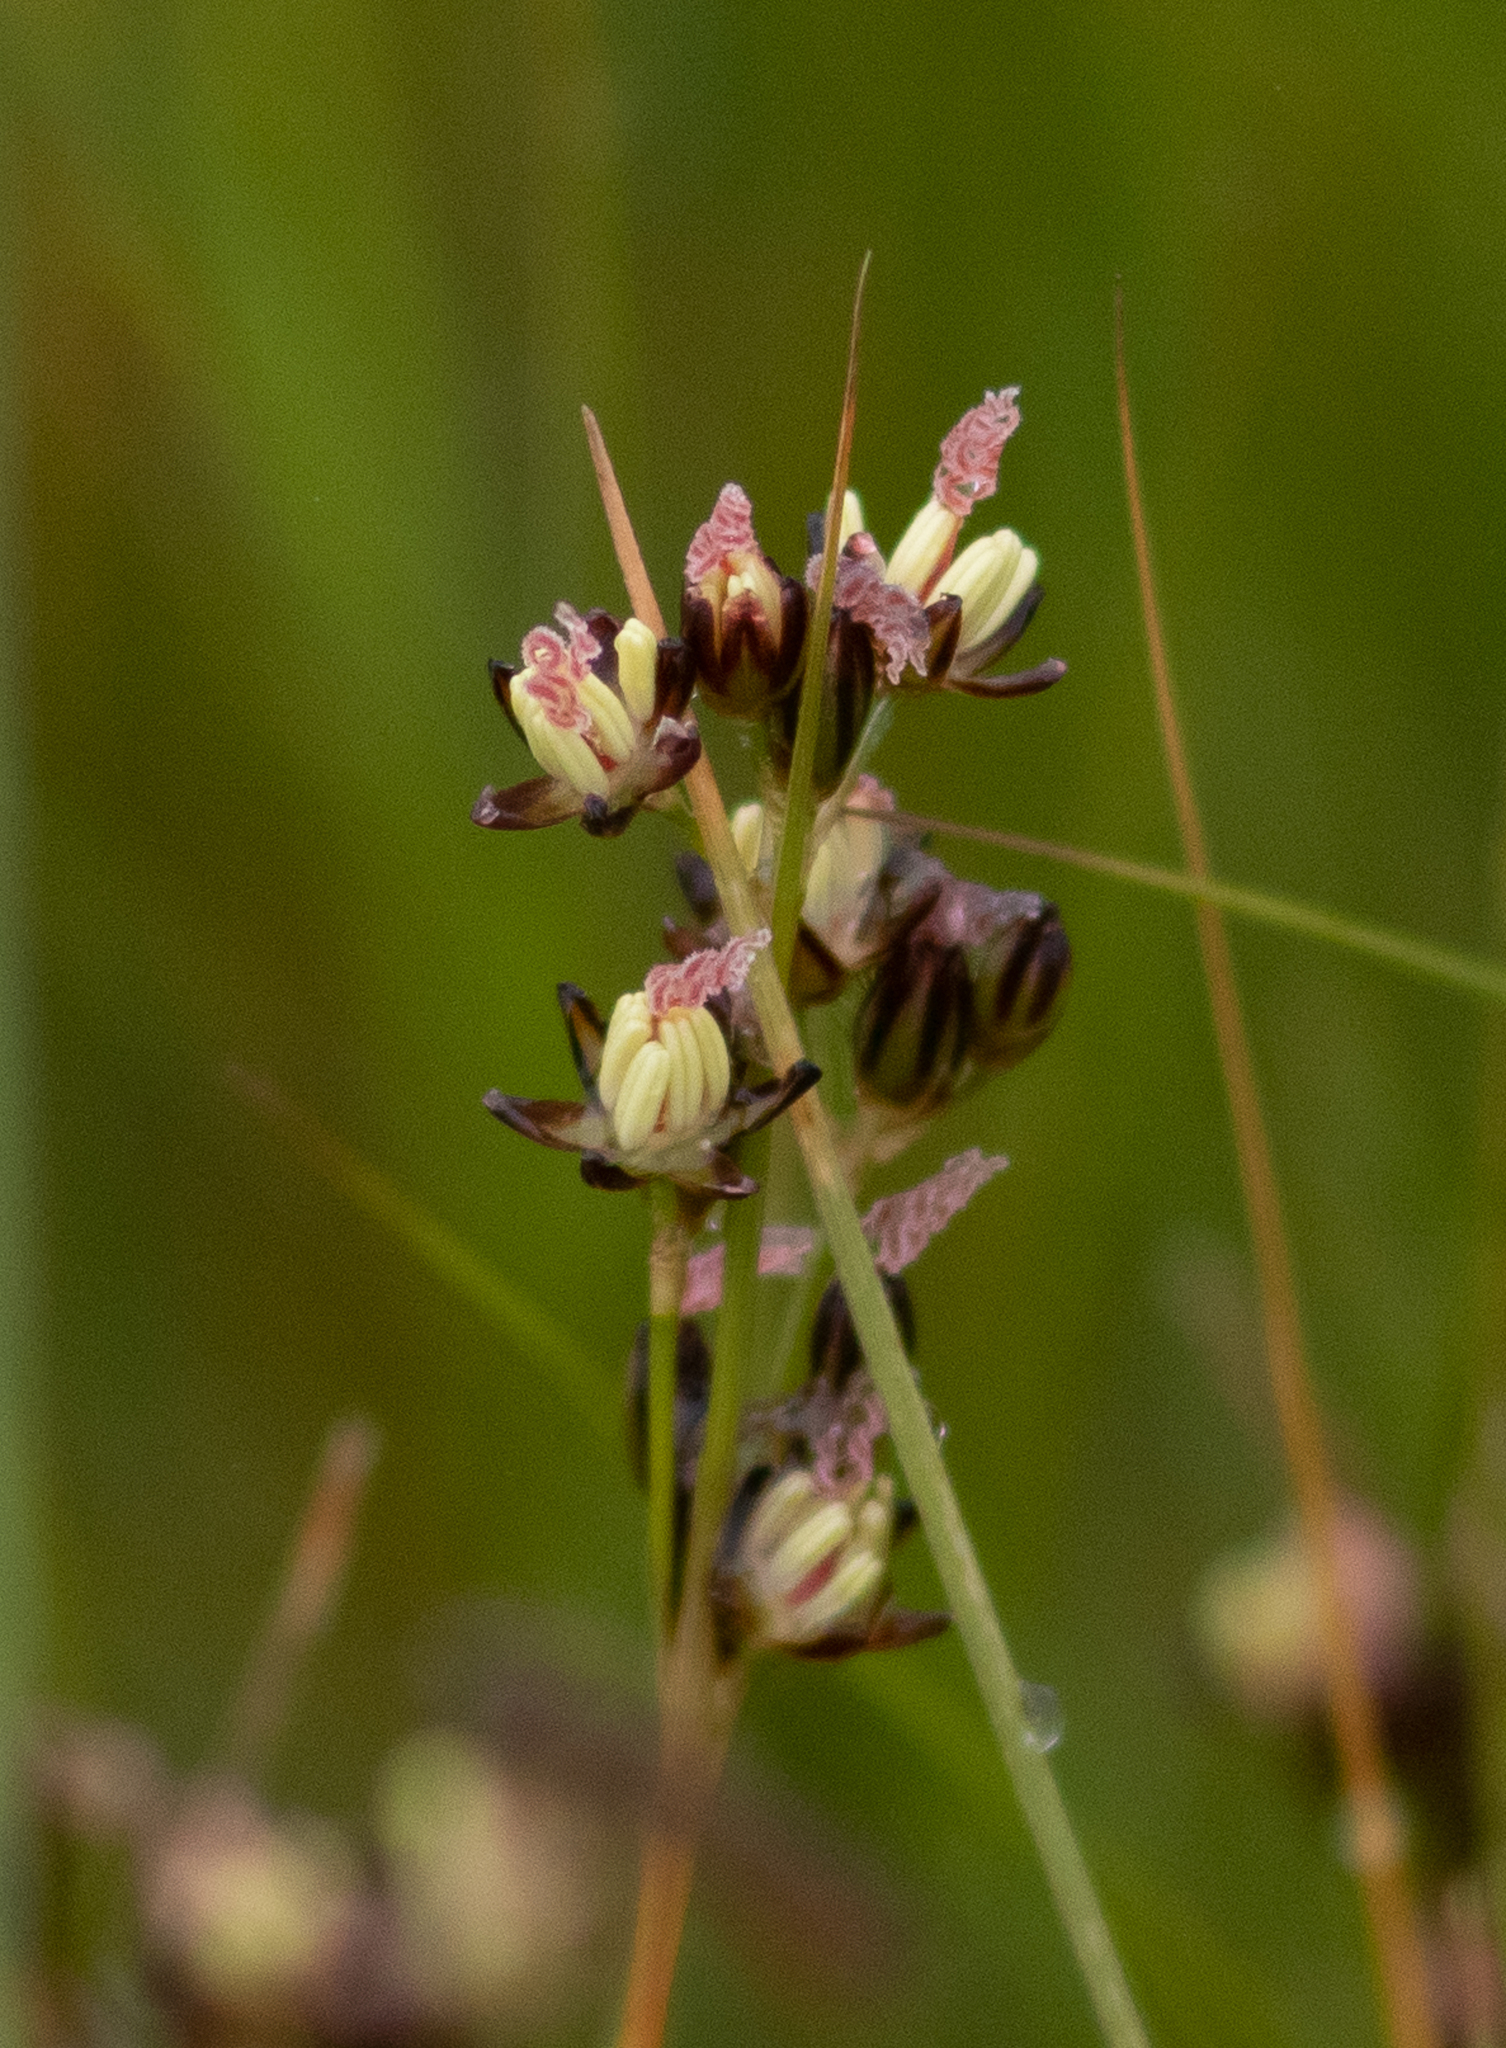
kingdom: Plantae
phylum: Tracheophyta
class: Liliopsida
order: Poales
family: Juncaceae
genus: Juncus
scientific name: Juncus gerardi
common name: Saltmarsh rush
